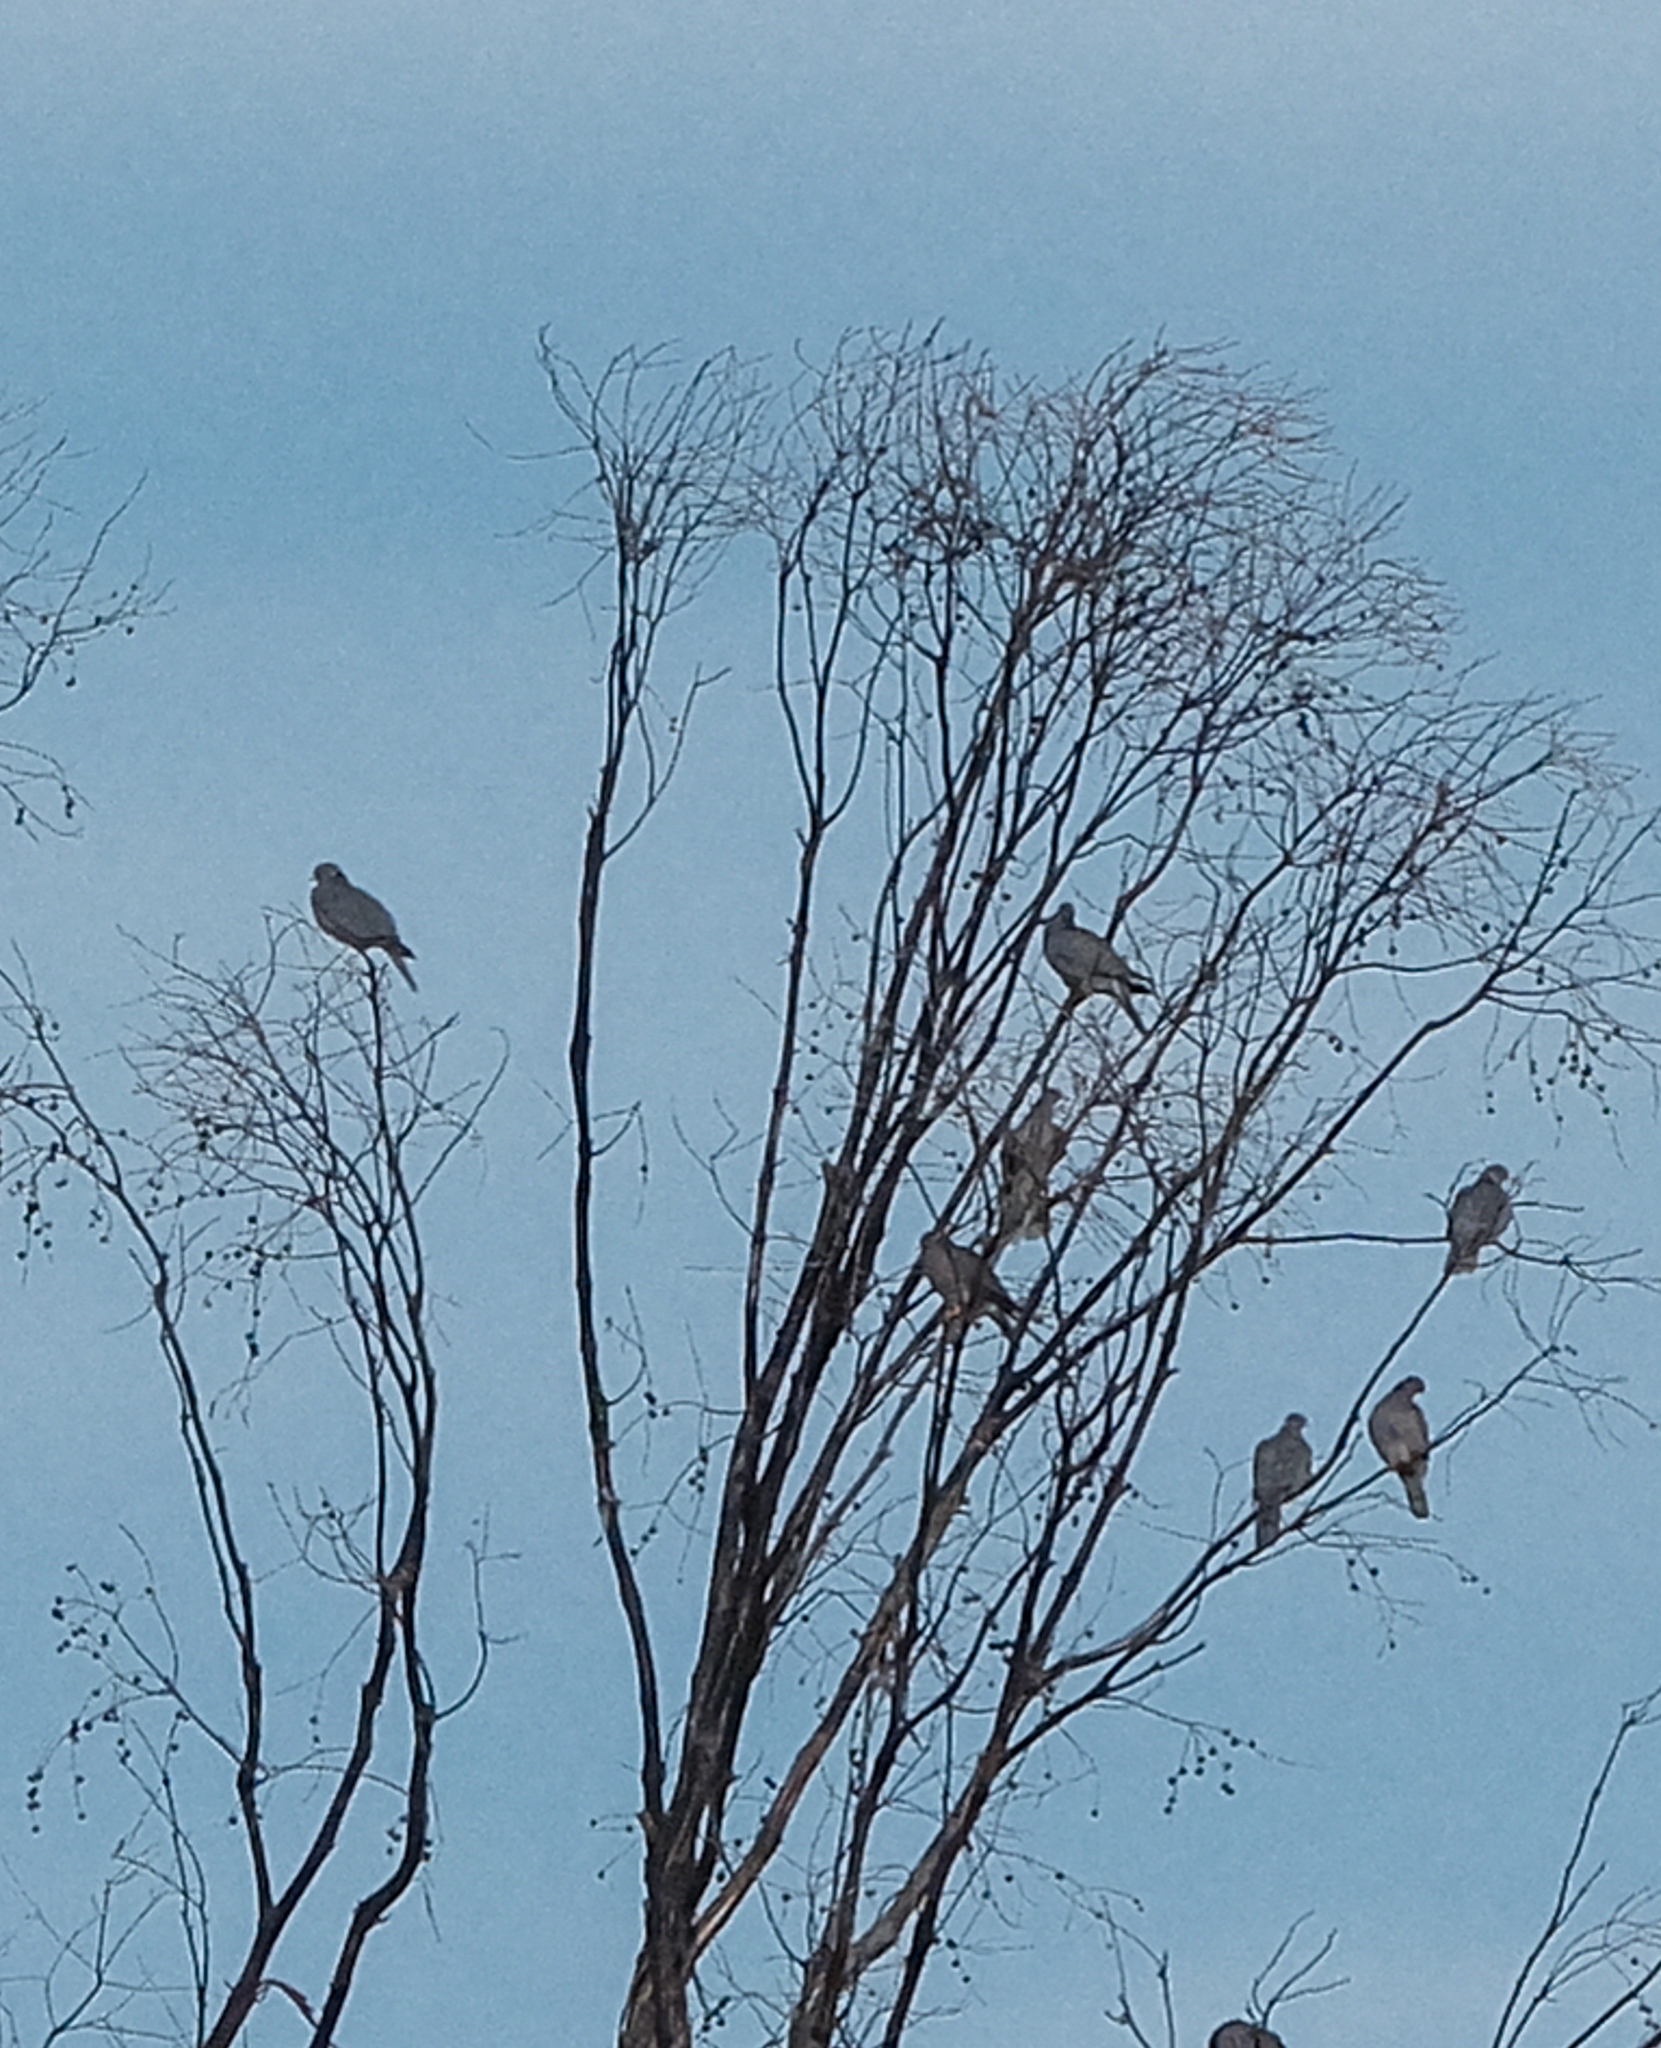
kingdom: Animalia
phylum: Chordata
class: Aves
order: Columbiformes
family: Columbidae
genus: Patagioenas
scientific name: Patagioenas fasciata
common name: Band-tailed pigeon
